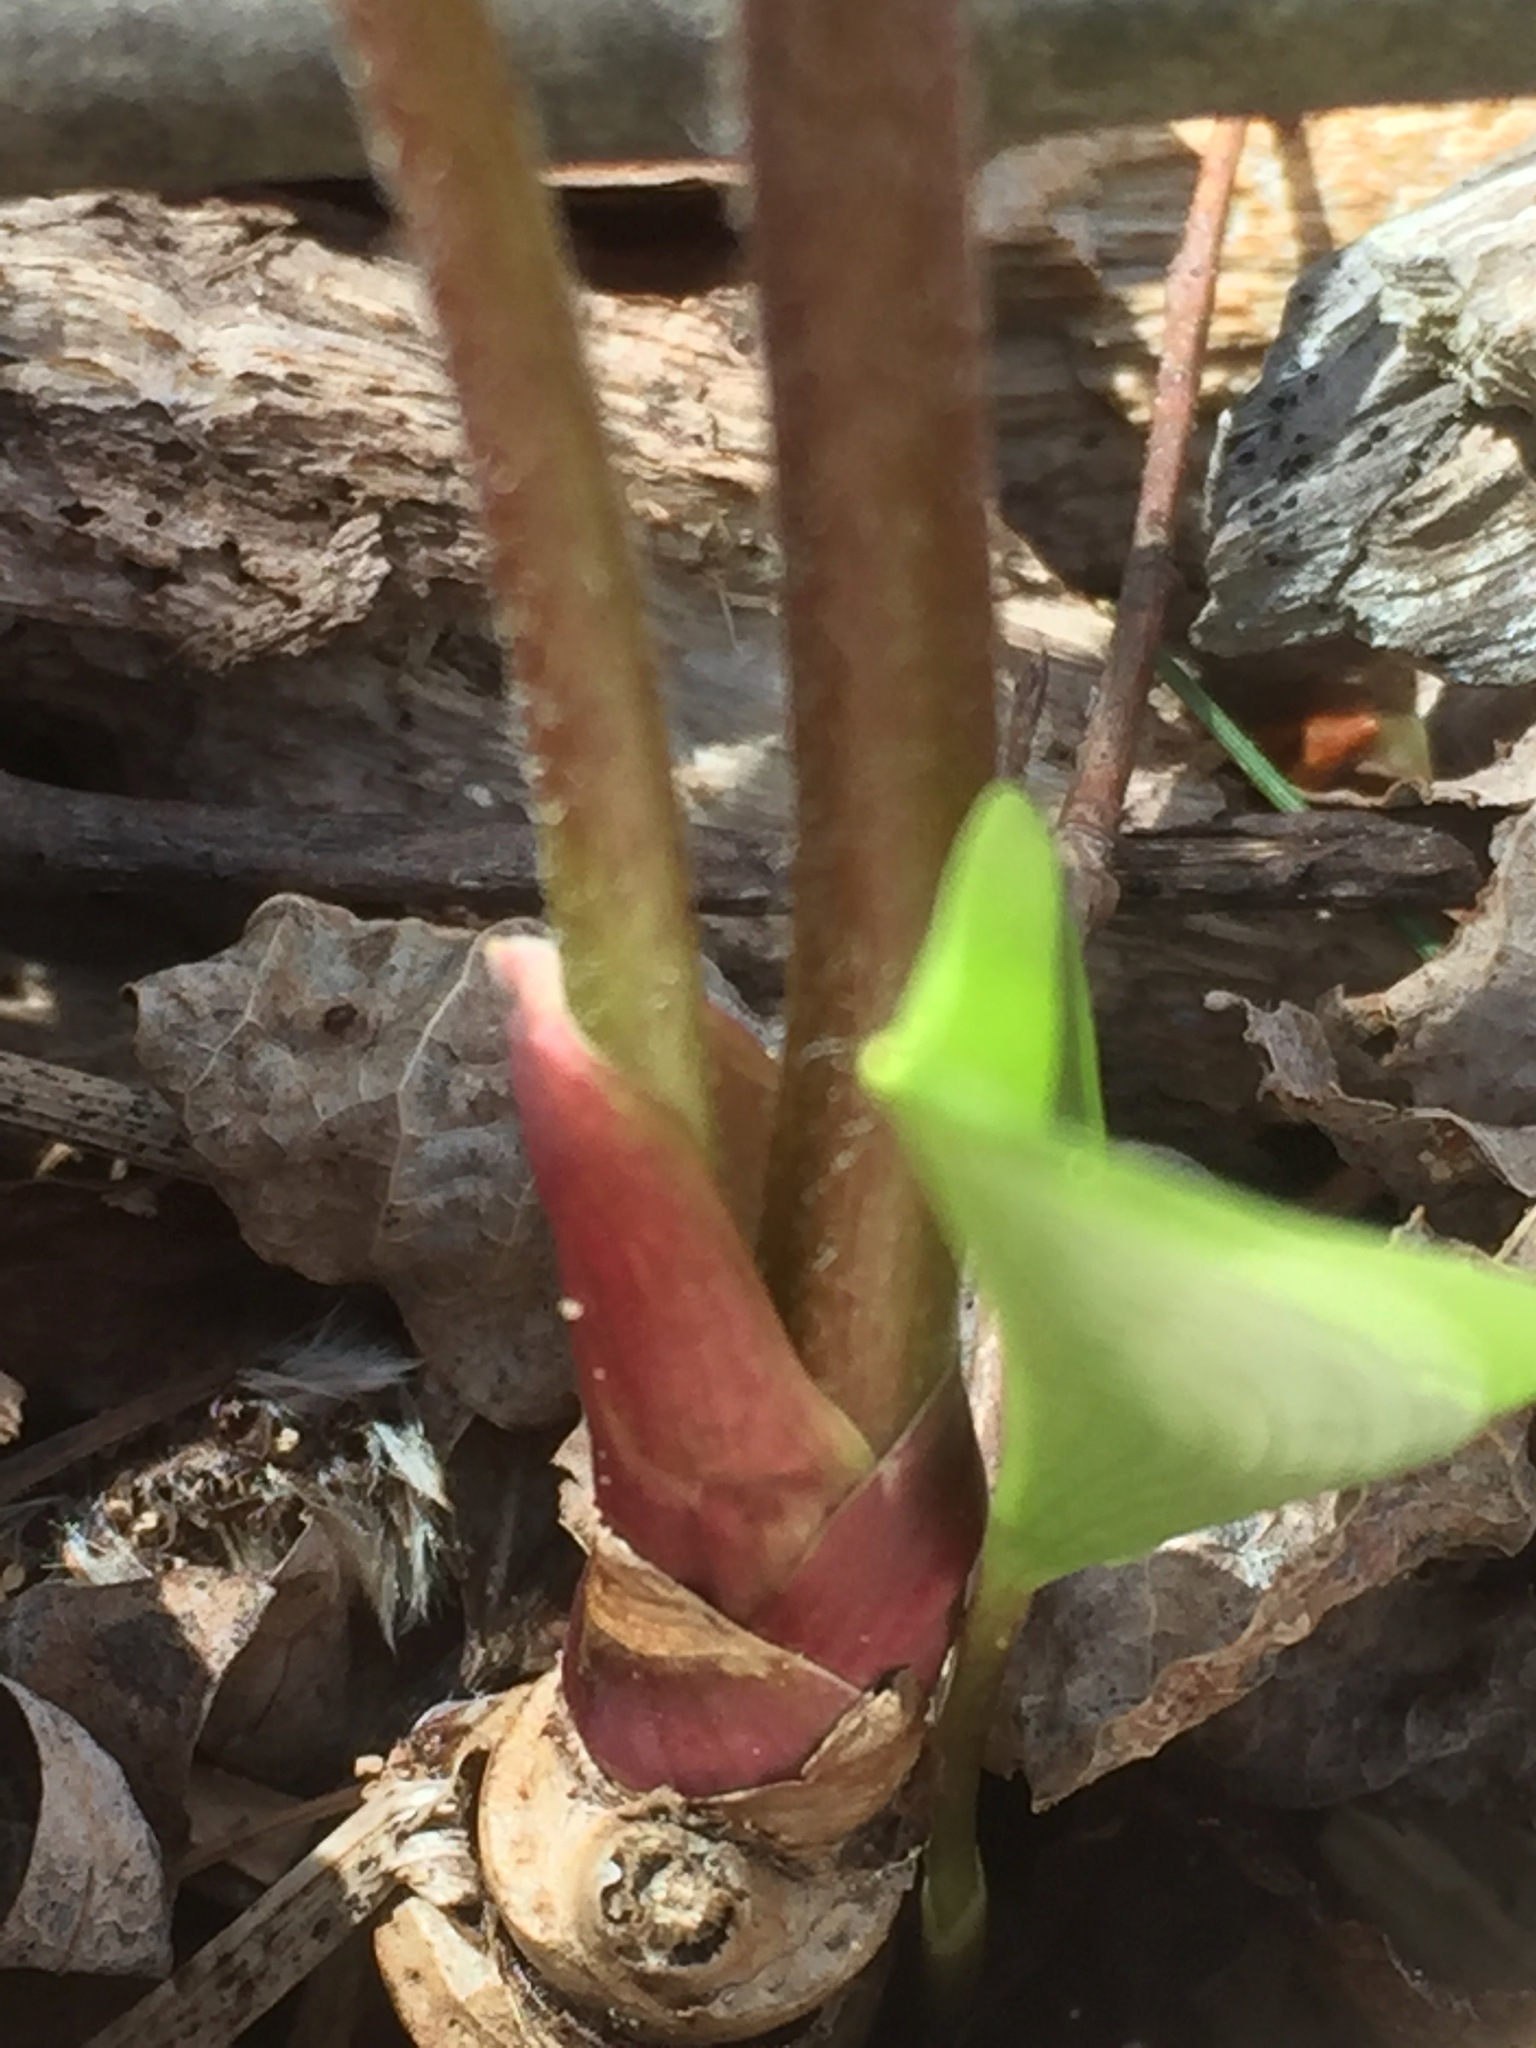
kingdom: Plantae
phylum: Tracheophyta
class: Magnoliopsida
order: Apiales
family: Araliaceae
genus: Aralia
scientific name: Aralia nudicaulis
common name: Wild sarsaparilla
